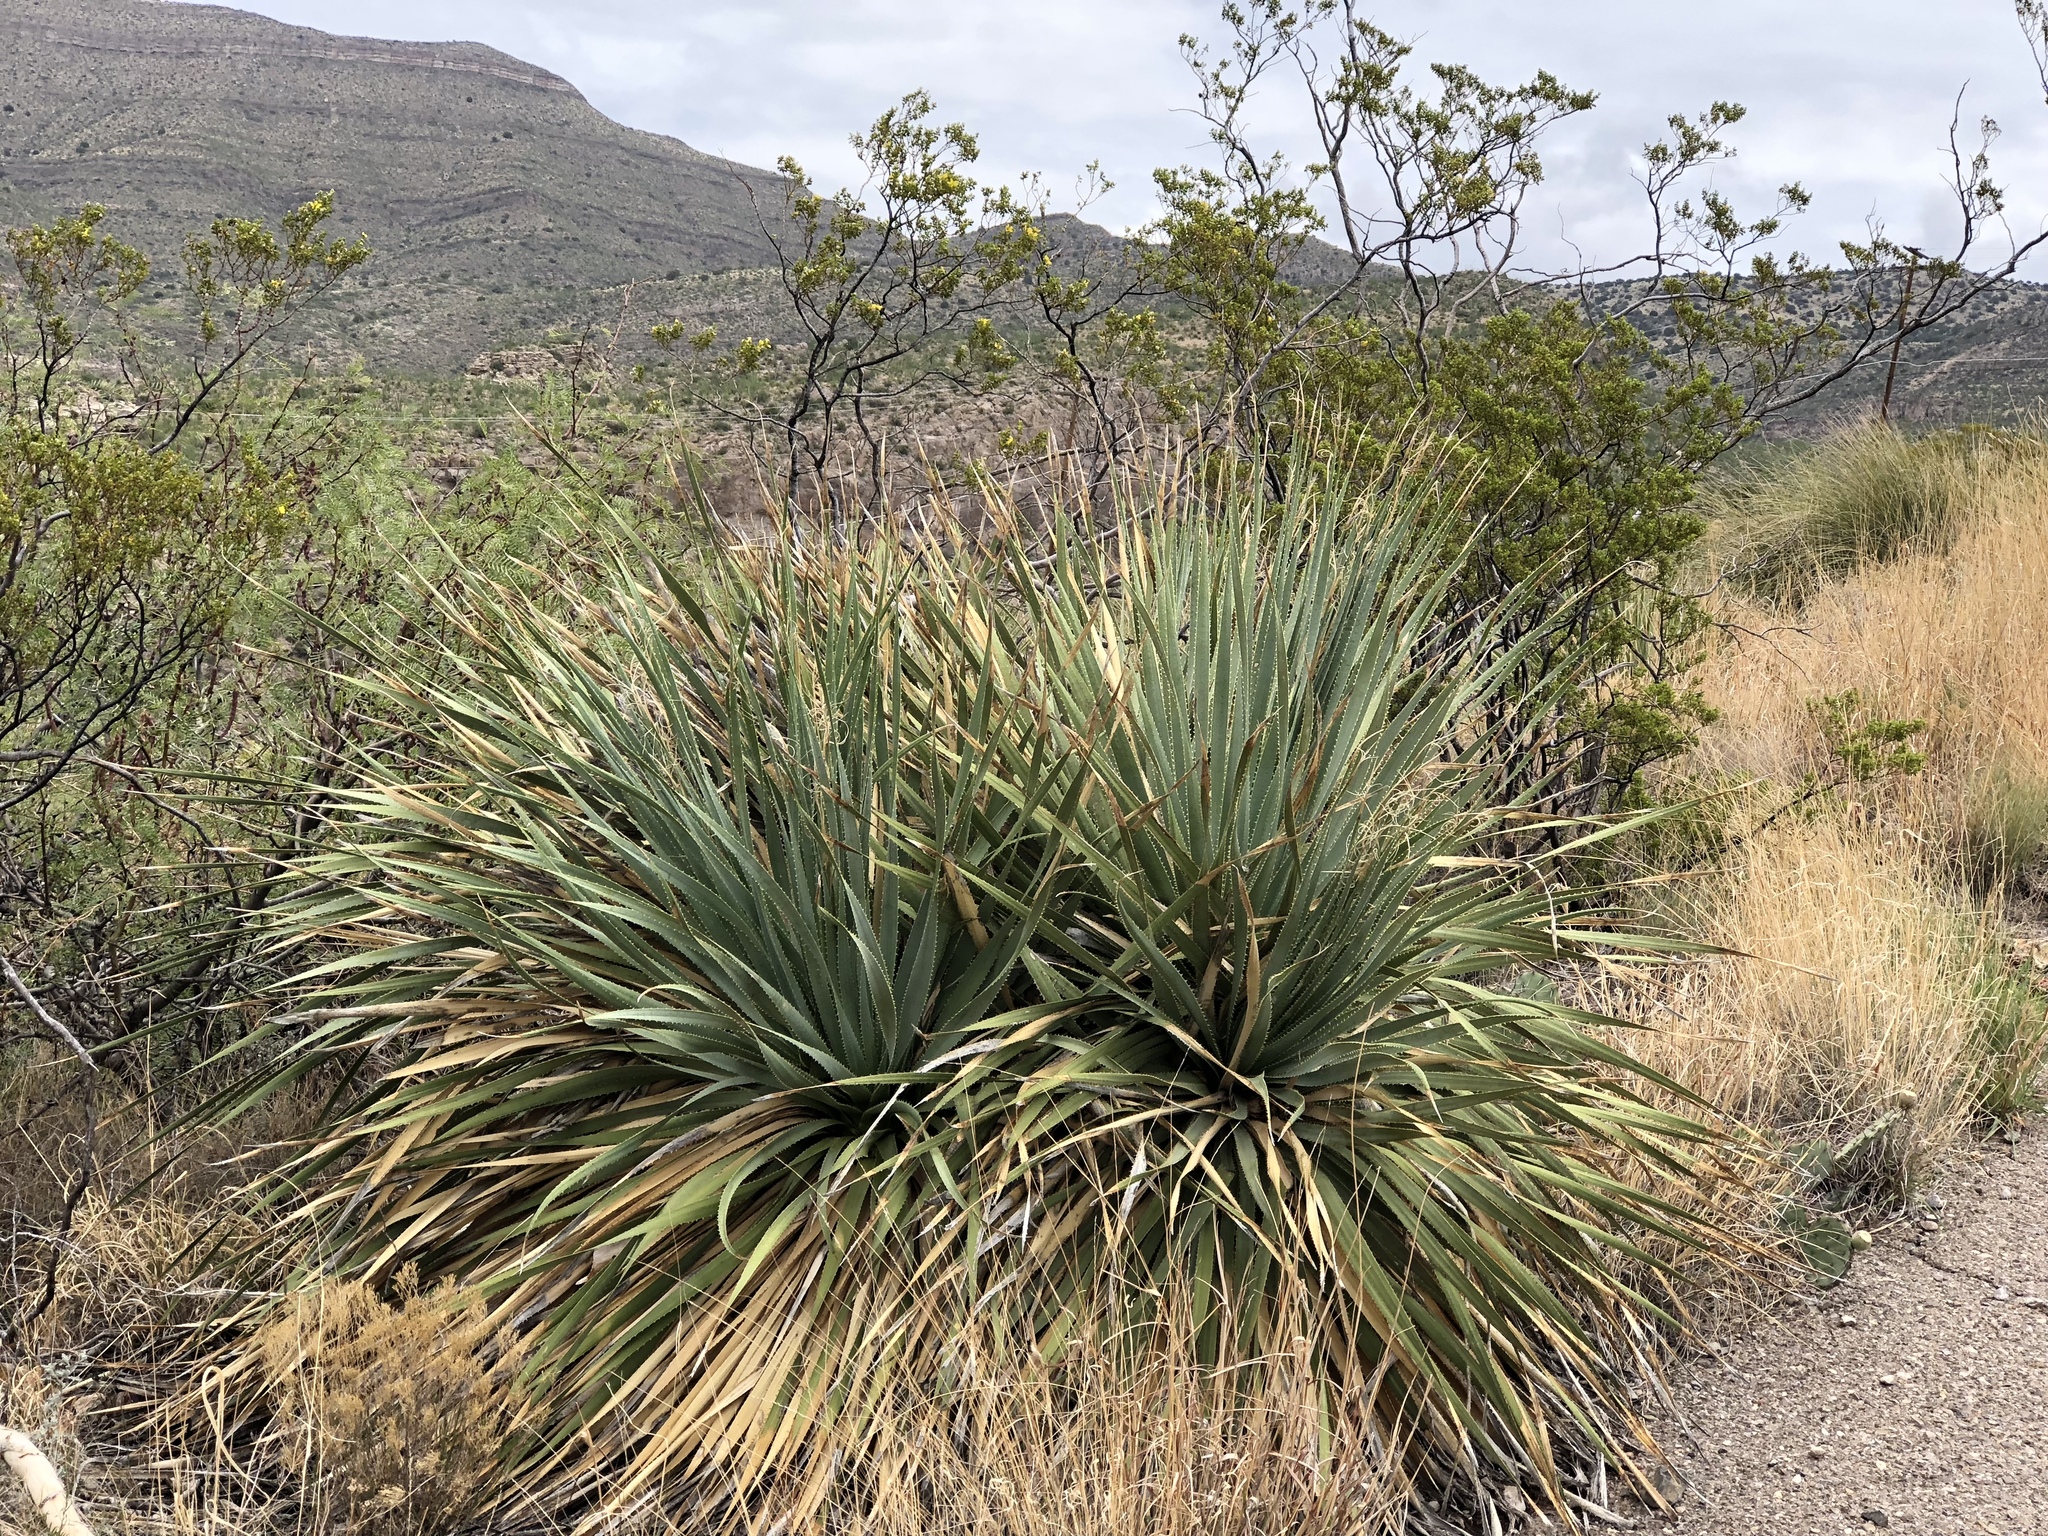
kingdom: Plantae
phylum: Tracheophyta
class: Liliopsida
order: Asparagales
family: Asparagaceae
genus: Dasylirion
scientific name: Dasylirion wheeleri
